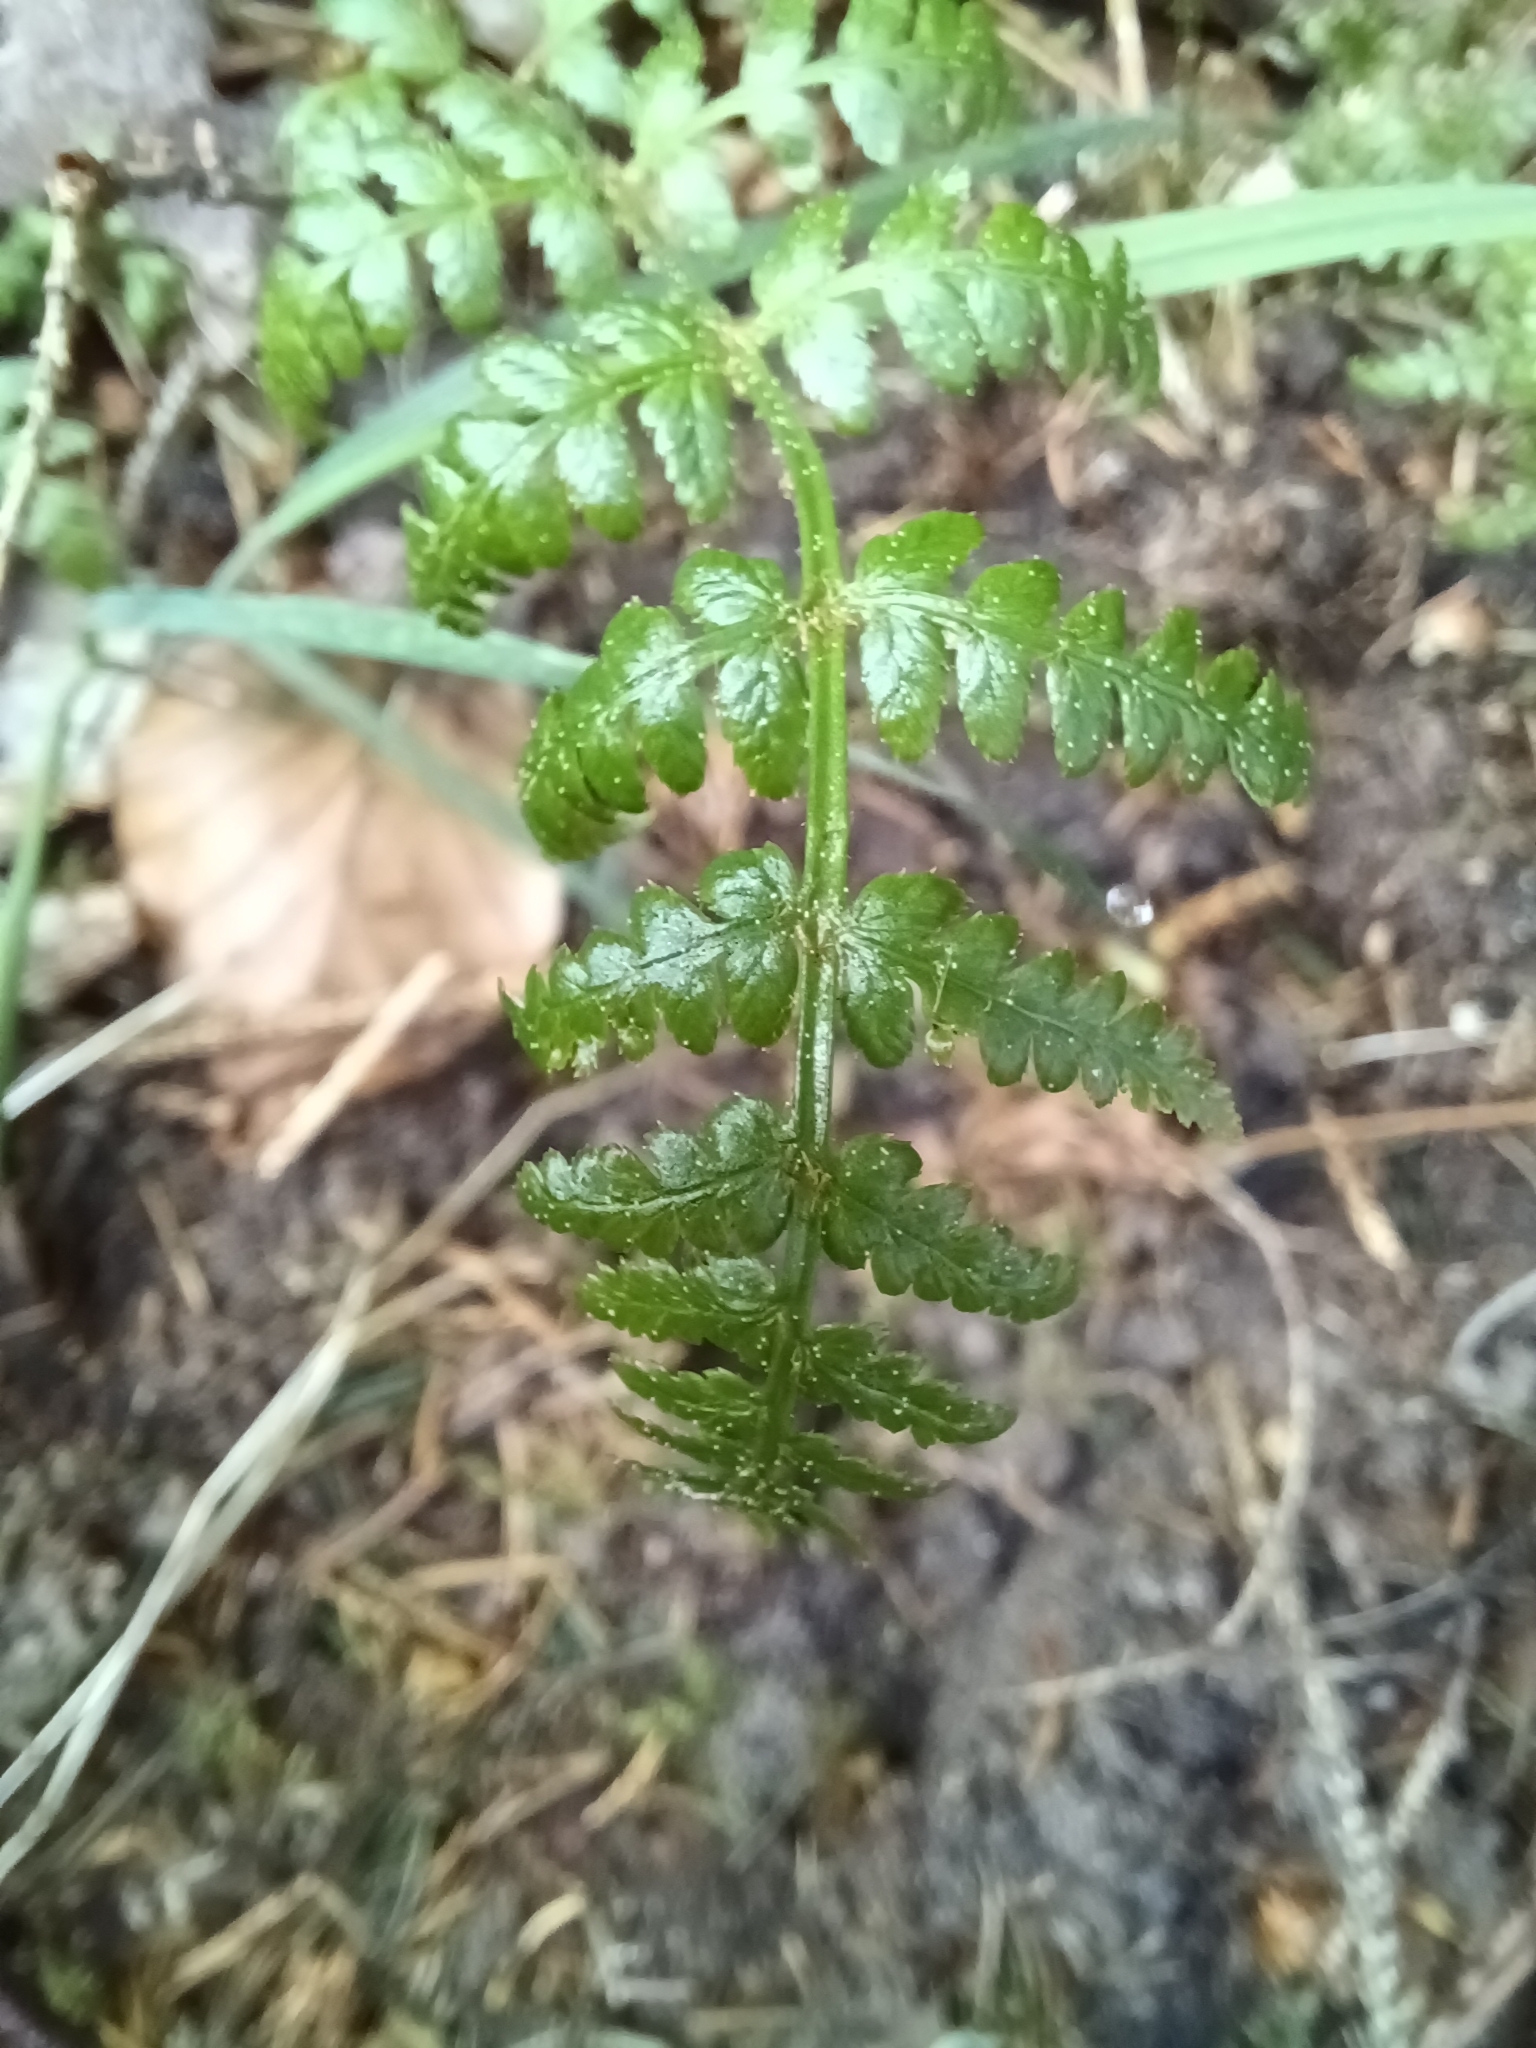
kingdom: Plantae
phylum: Tracheophyta
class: Polypodiopsida
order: Polypodiales
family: Dennstaedtiaceae
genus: Pteridium
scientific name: Pteridium aquilinum
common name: Bracken
